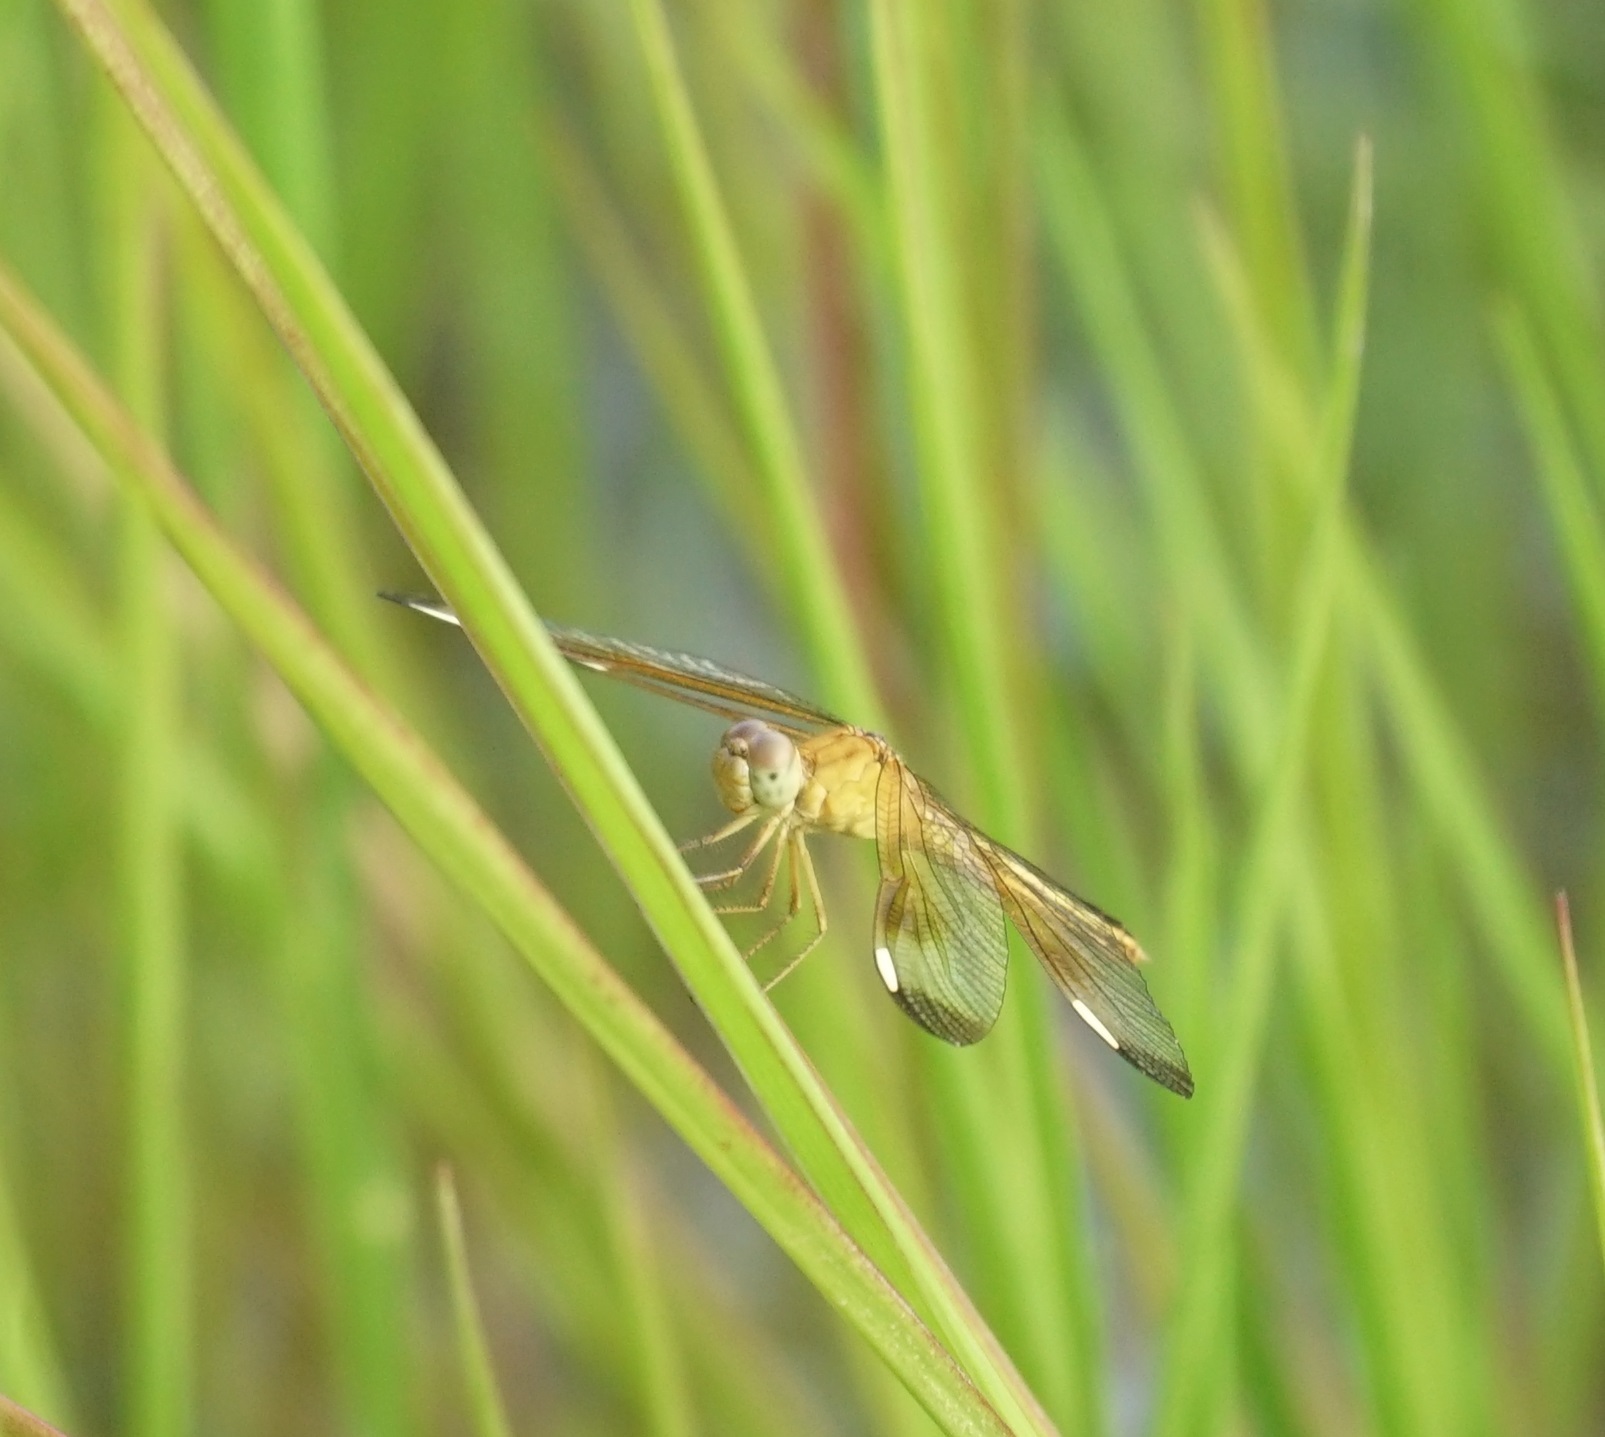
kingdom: Animalia
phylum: Arthropoda
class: Insecta
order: Odonata
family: Libellulidae
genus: Neurothemis
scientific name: Neurothemis stigmatizans
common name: Painted grasshawk
